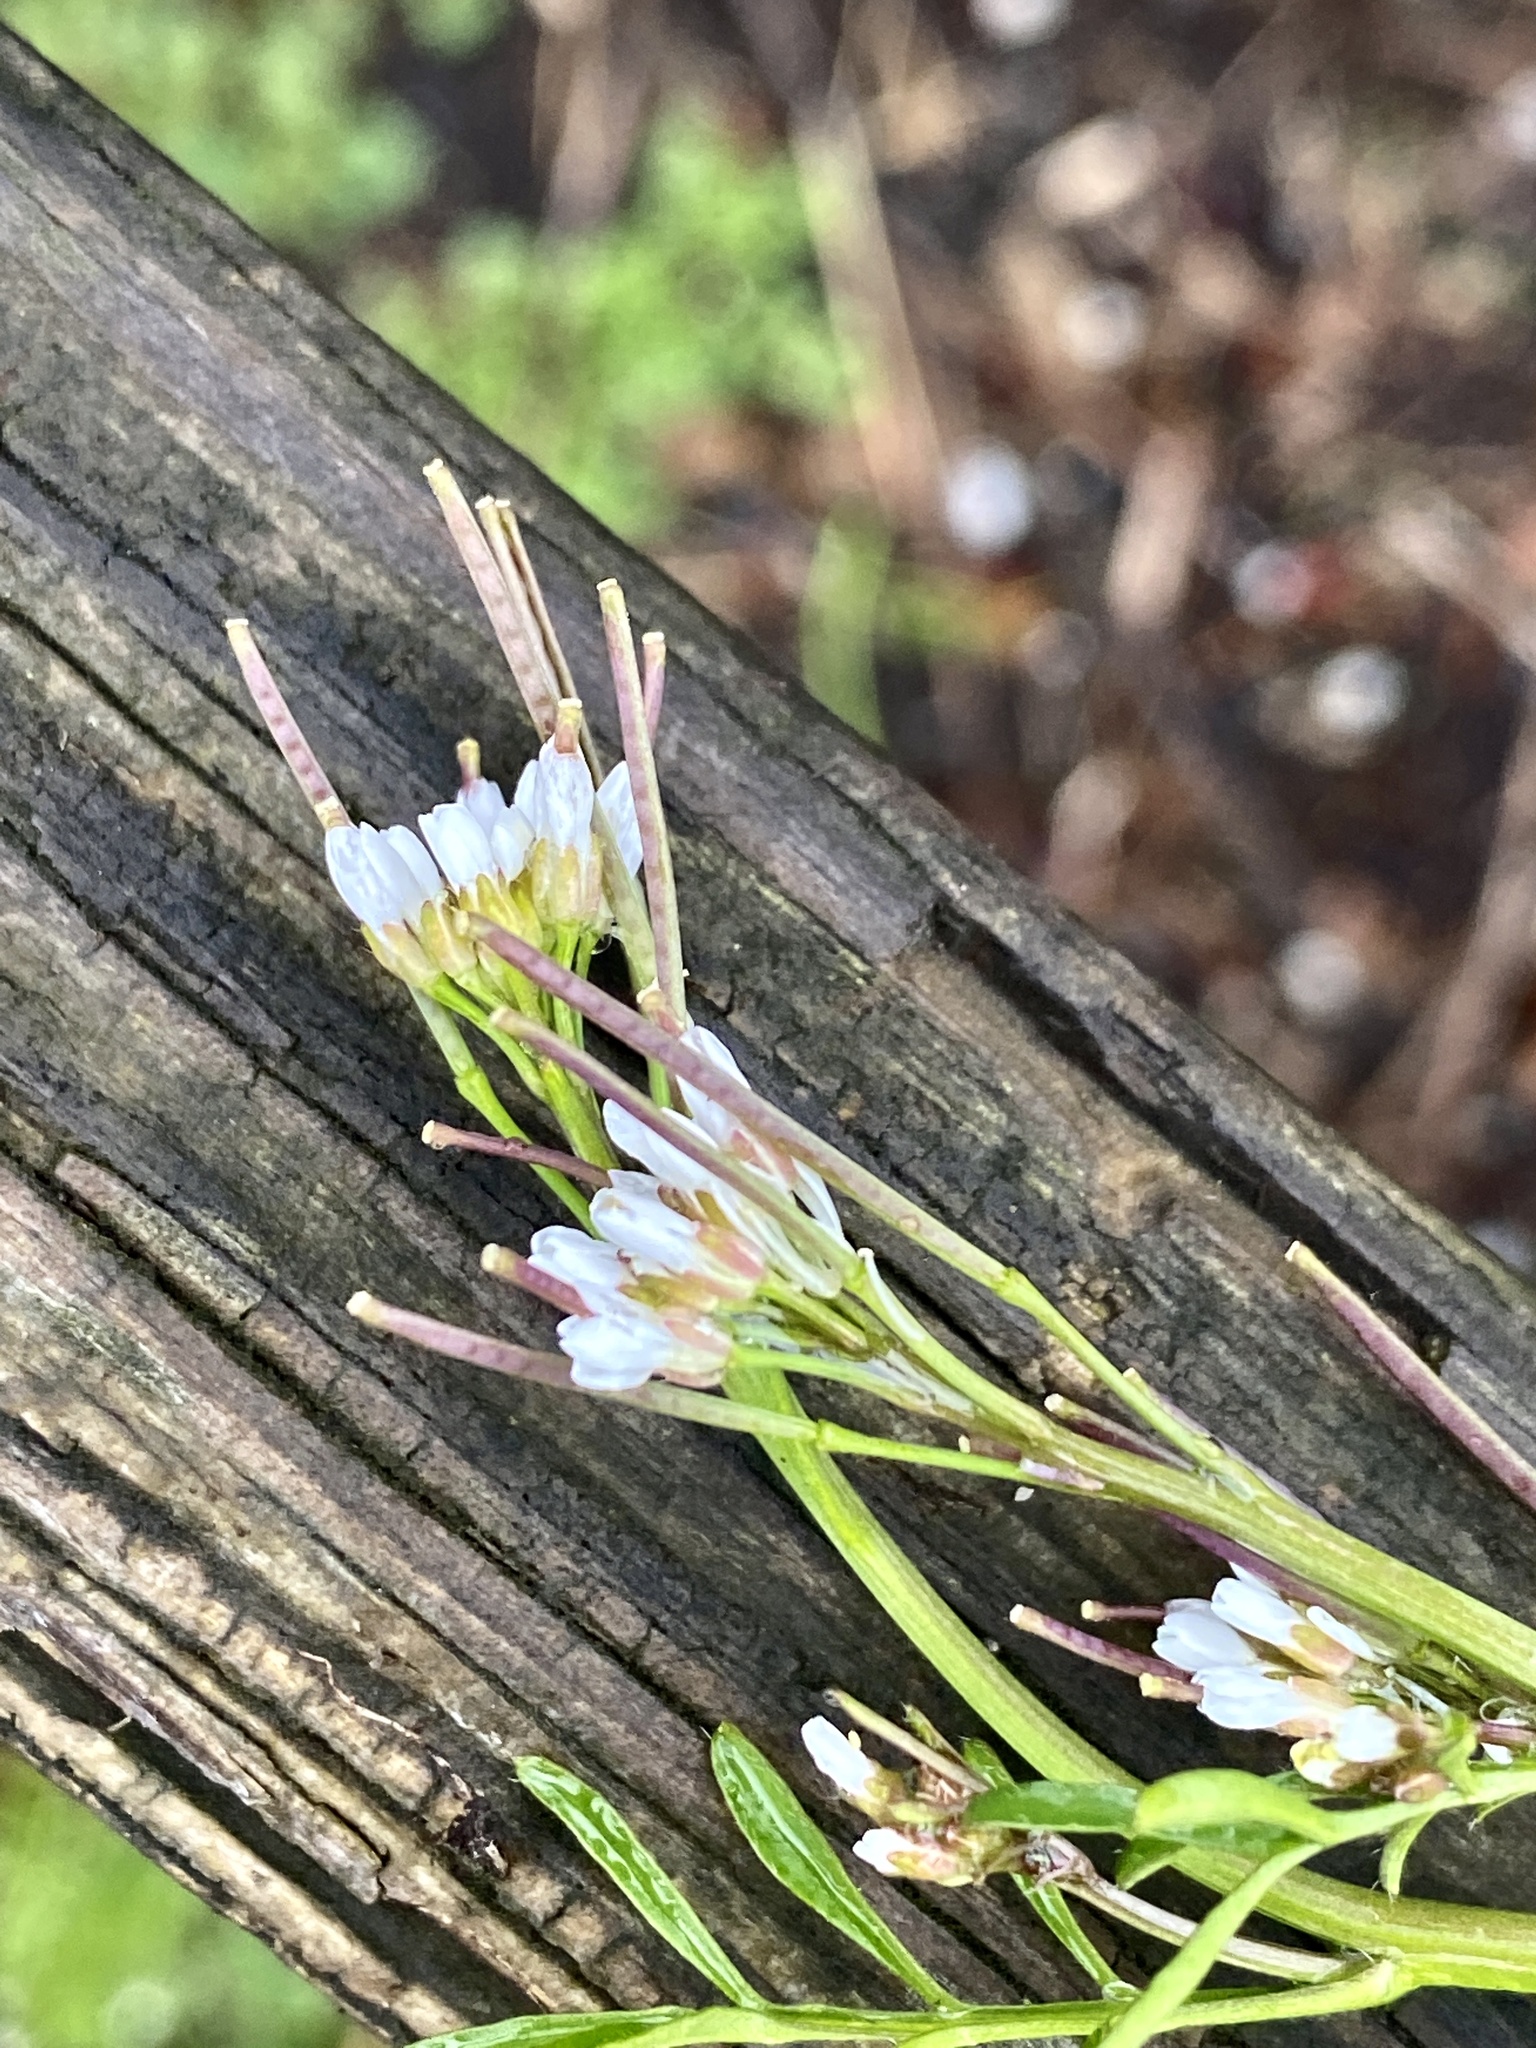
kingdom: Plantae
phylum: Tracheophyta
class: Magnoliopsida
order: Brassicales
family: Brassicaceae
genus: Cardamine
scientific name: Cardamine hirsuta
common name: Hairy bittercress
